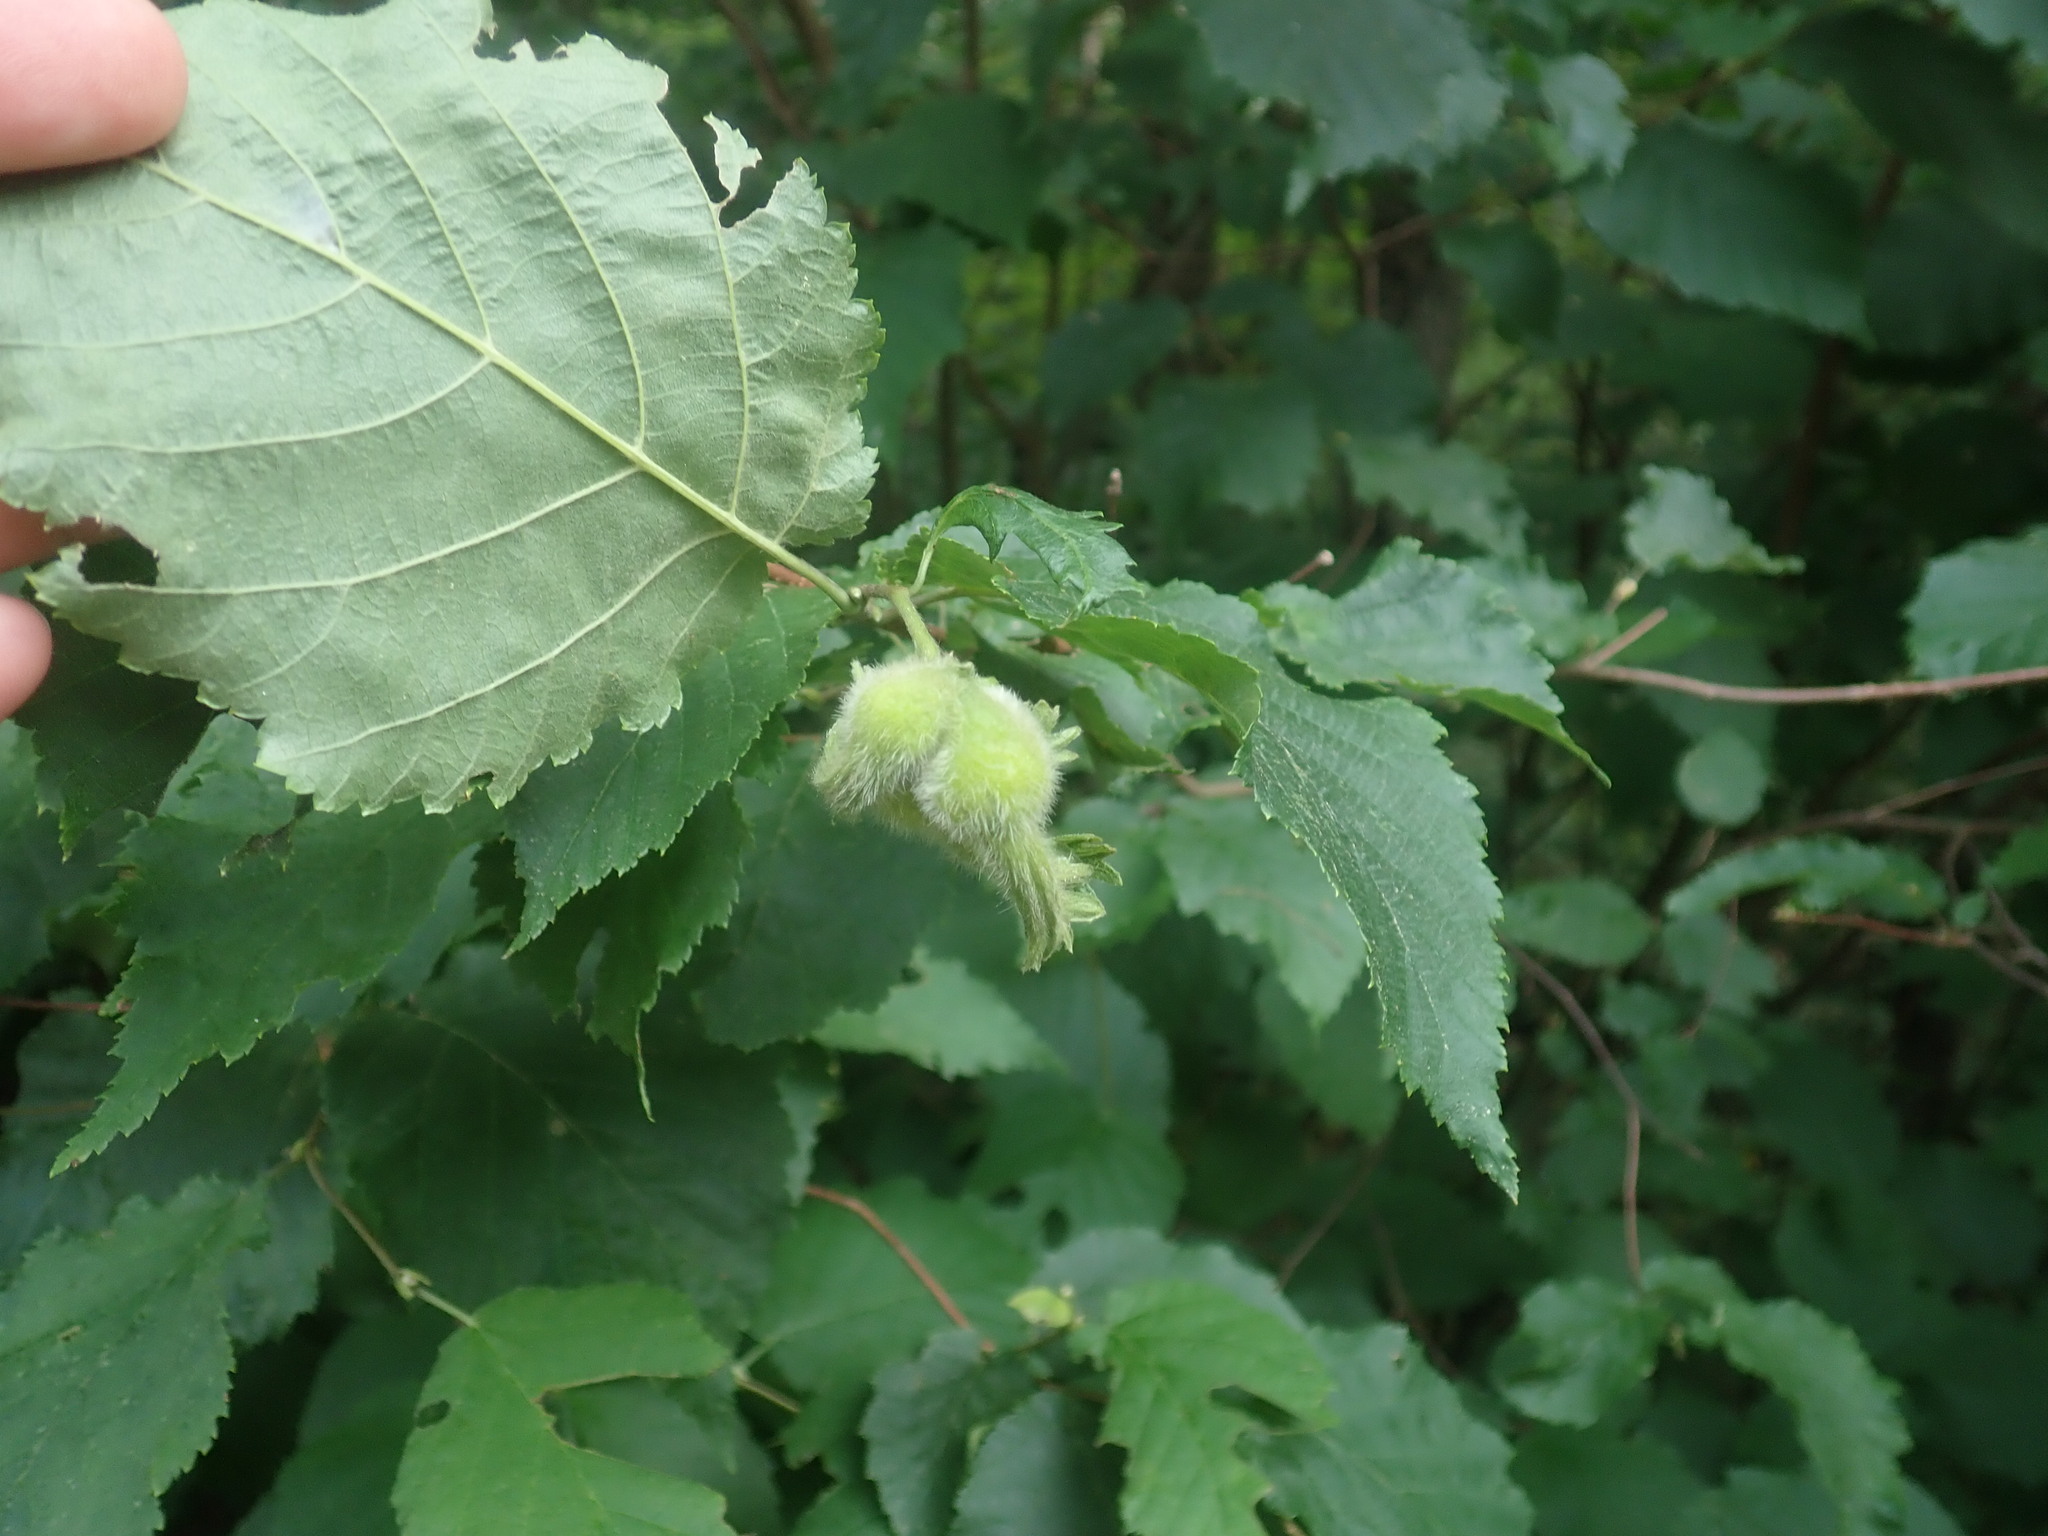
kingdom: Plantae
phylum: Tracheophyta
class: Magnoliopsida
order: Fagales
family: Betulaceae
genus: Corylus
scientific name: Corylus cornuta
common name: Beaked hazel
